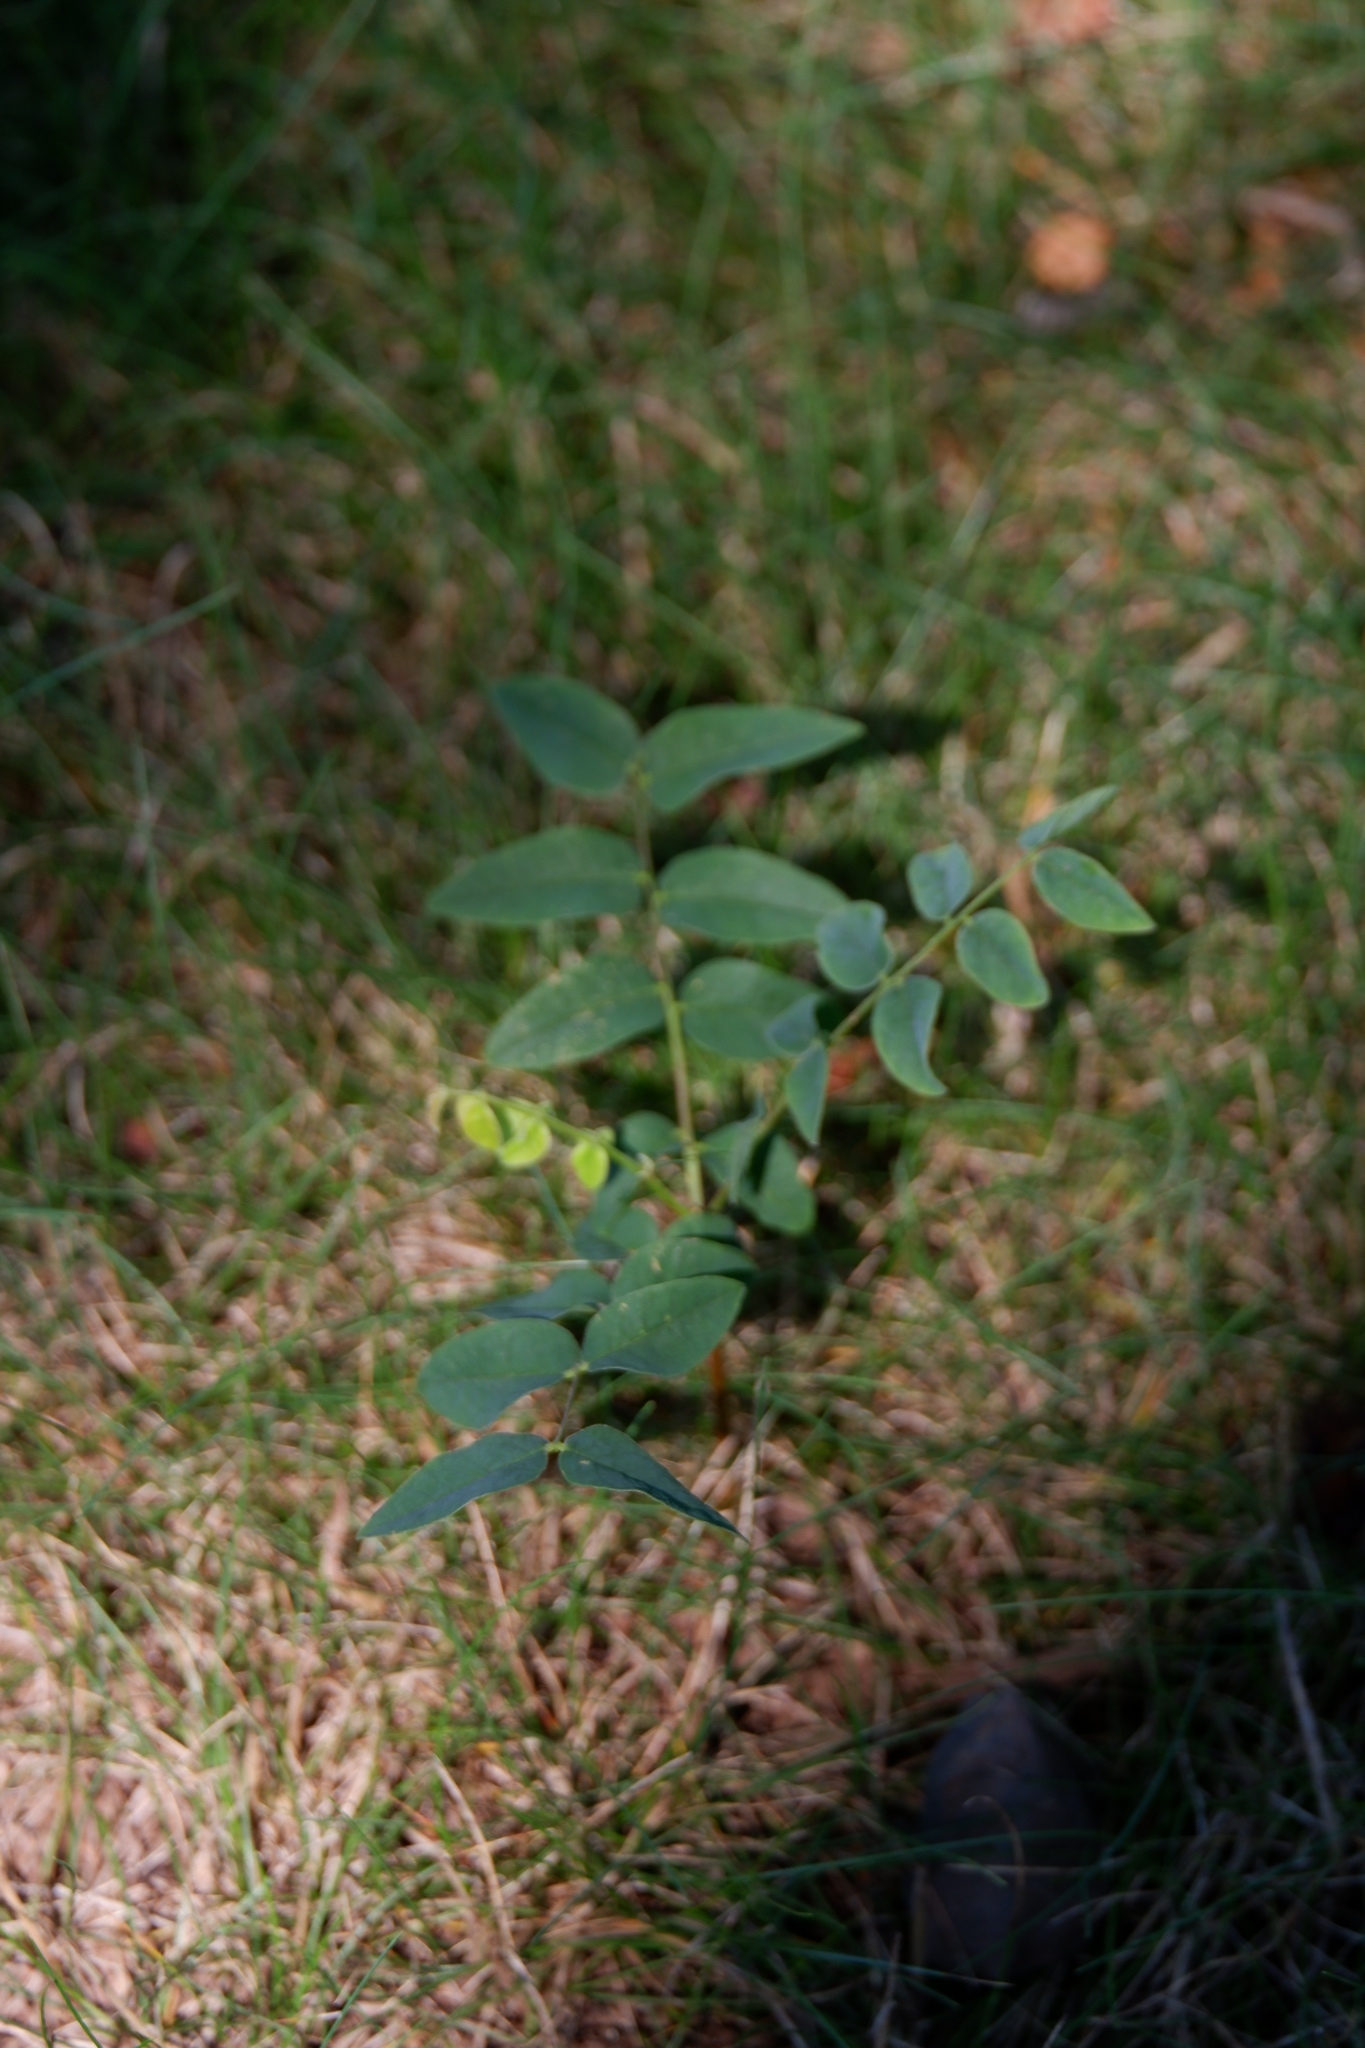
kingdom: Plantae
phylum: Tracheophyta
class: Magnoliopsida
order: Fabales
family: Fabaceae
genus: Gymnocladus
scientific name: Gymnocladus dioicus
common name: Kentucky coffee-tree
